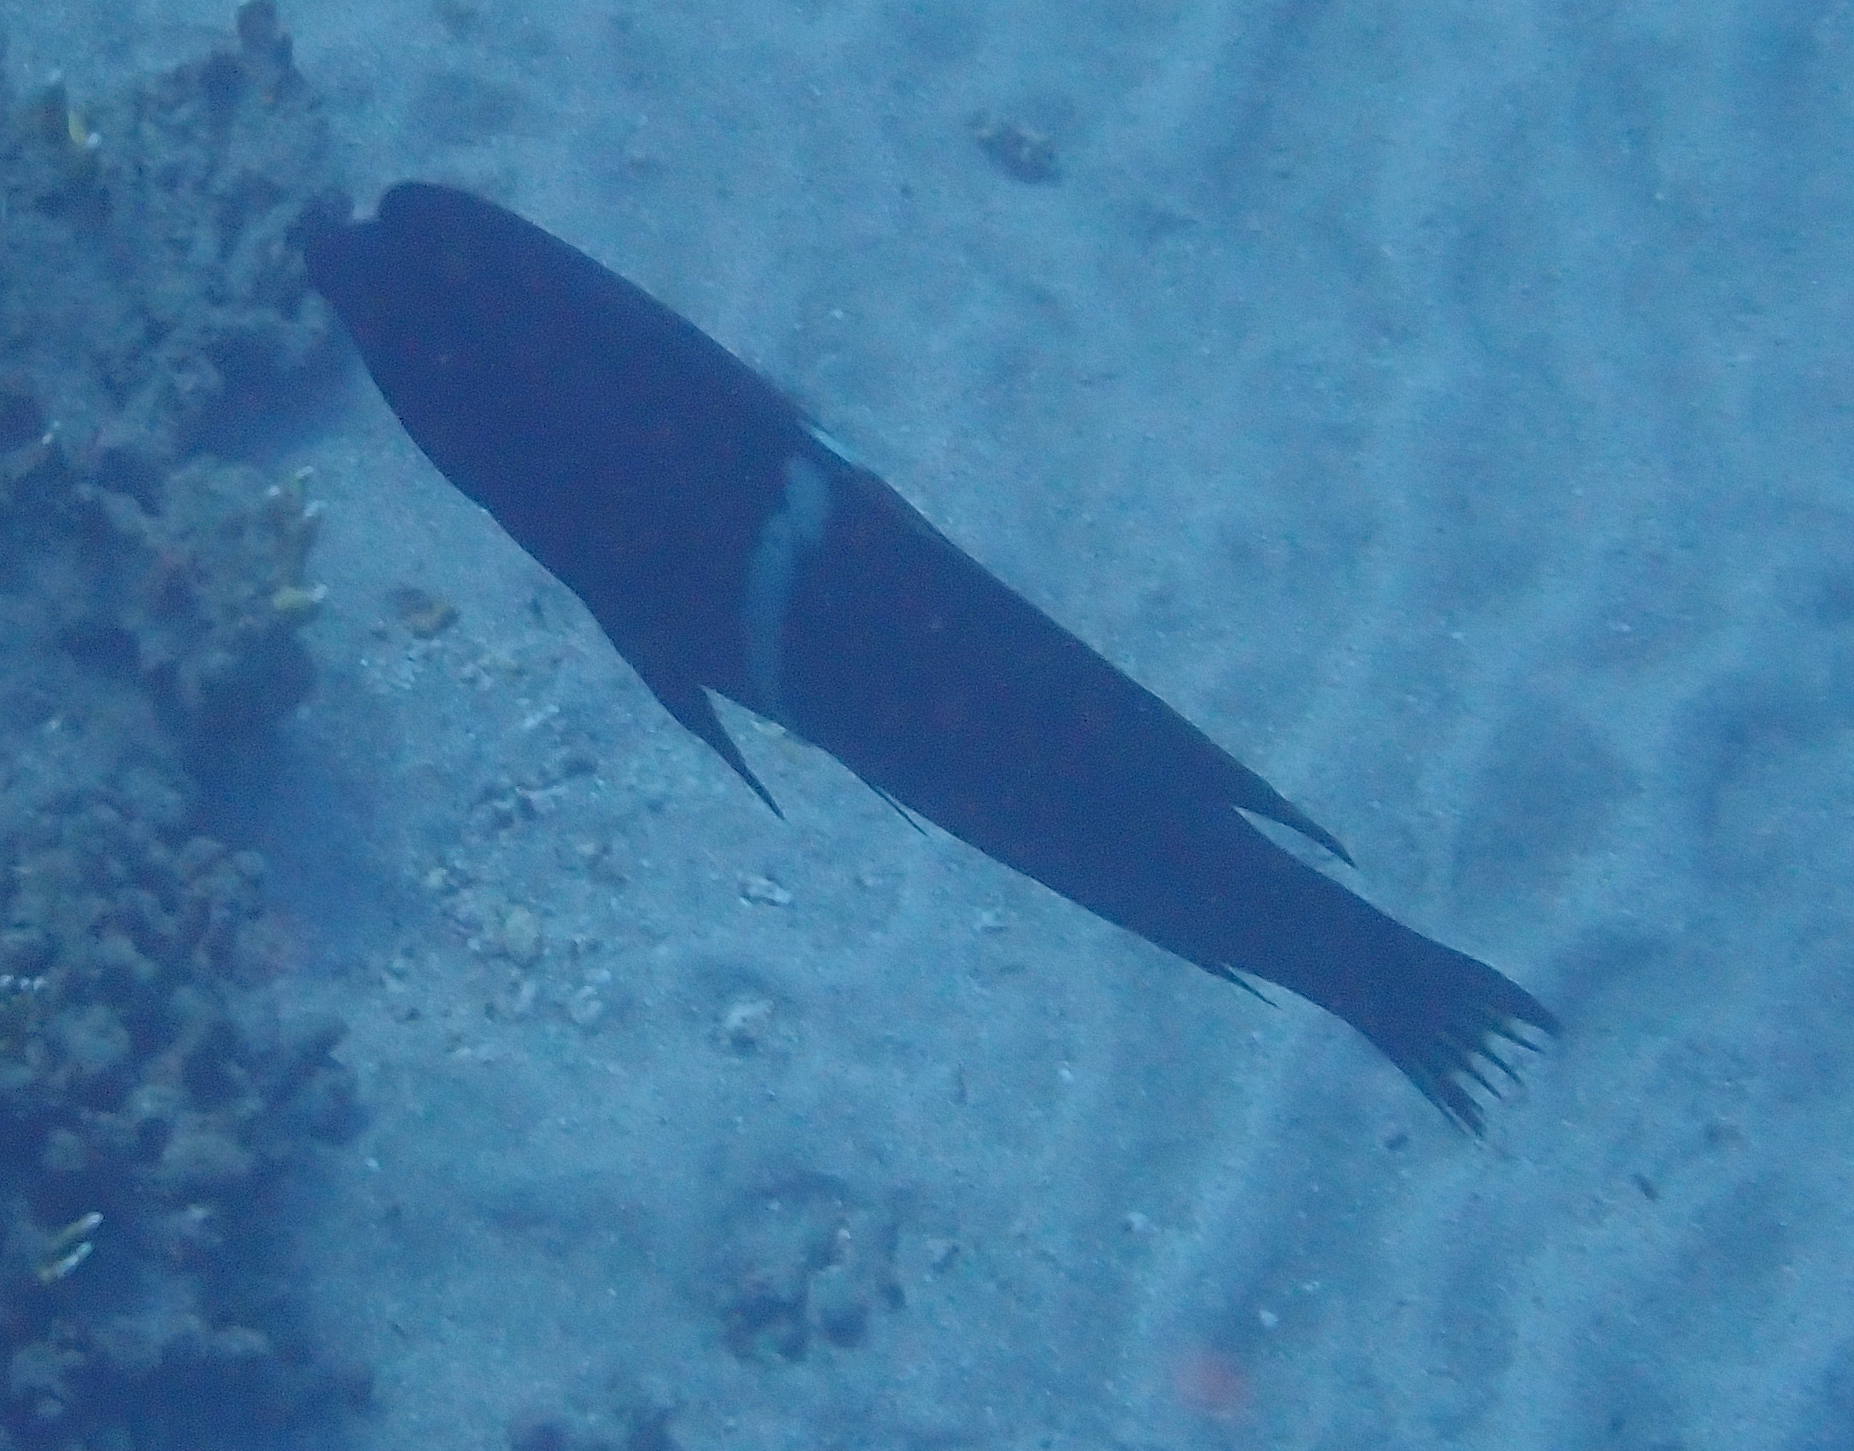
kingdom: Animalia
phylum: Chordata
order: Perciformes
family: Labridae
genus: Coris
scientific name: Coris aygula
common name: Clown coris
